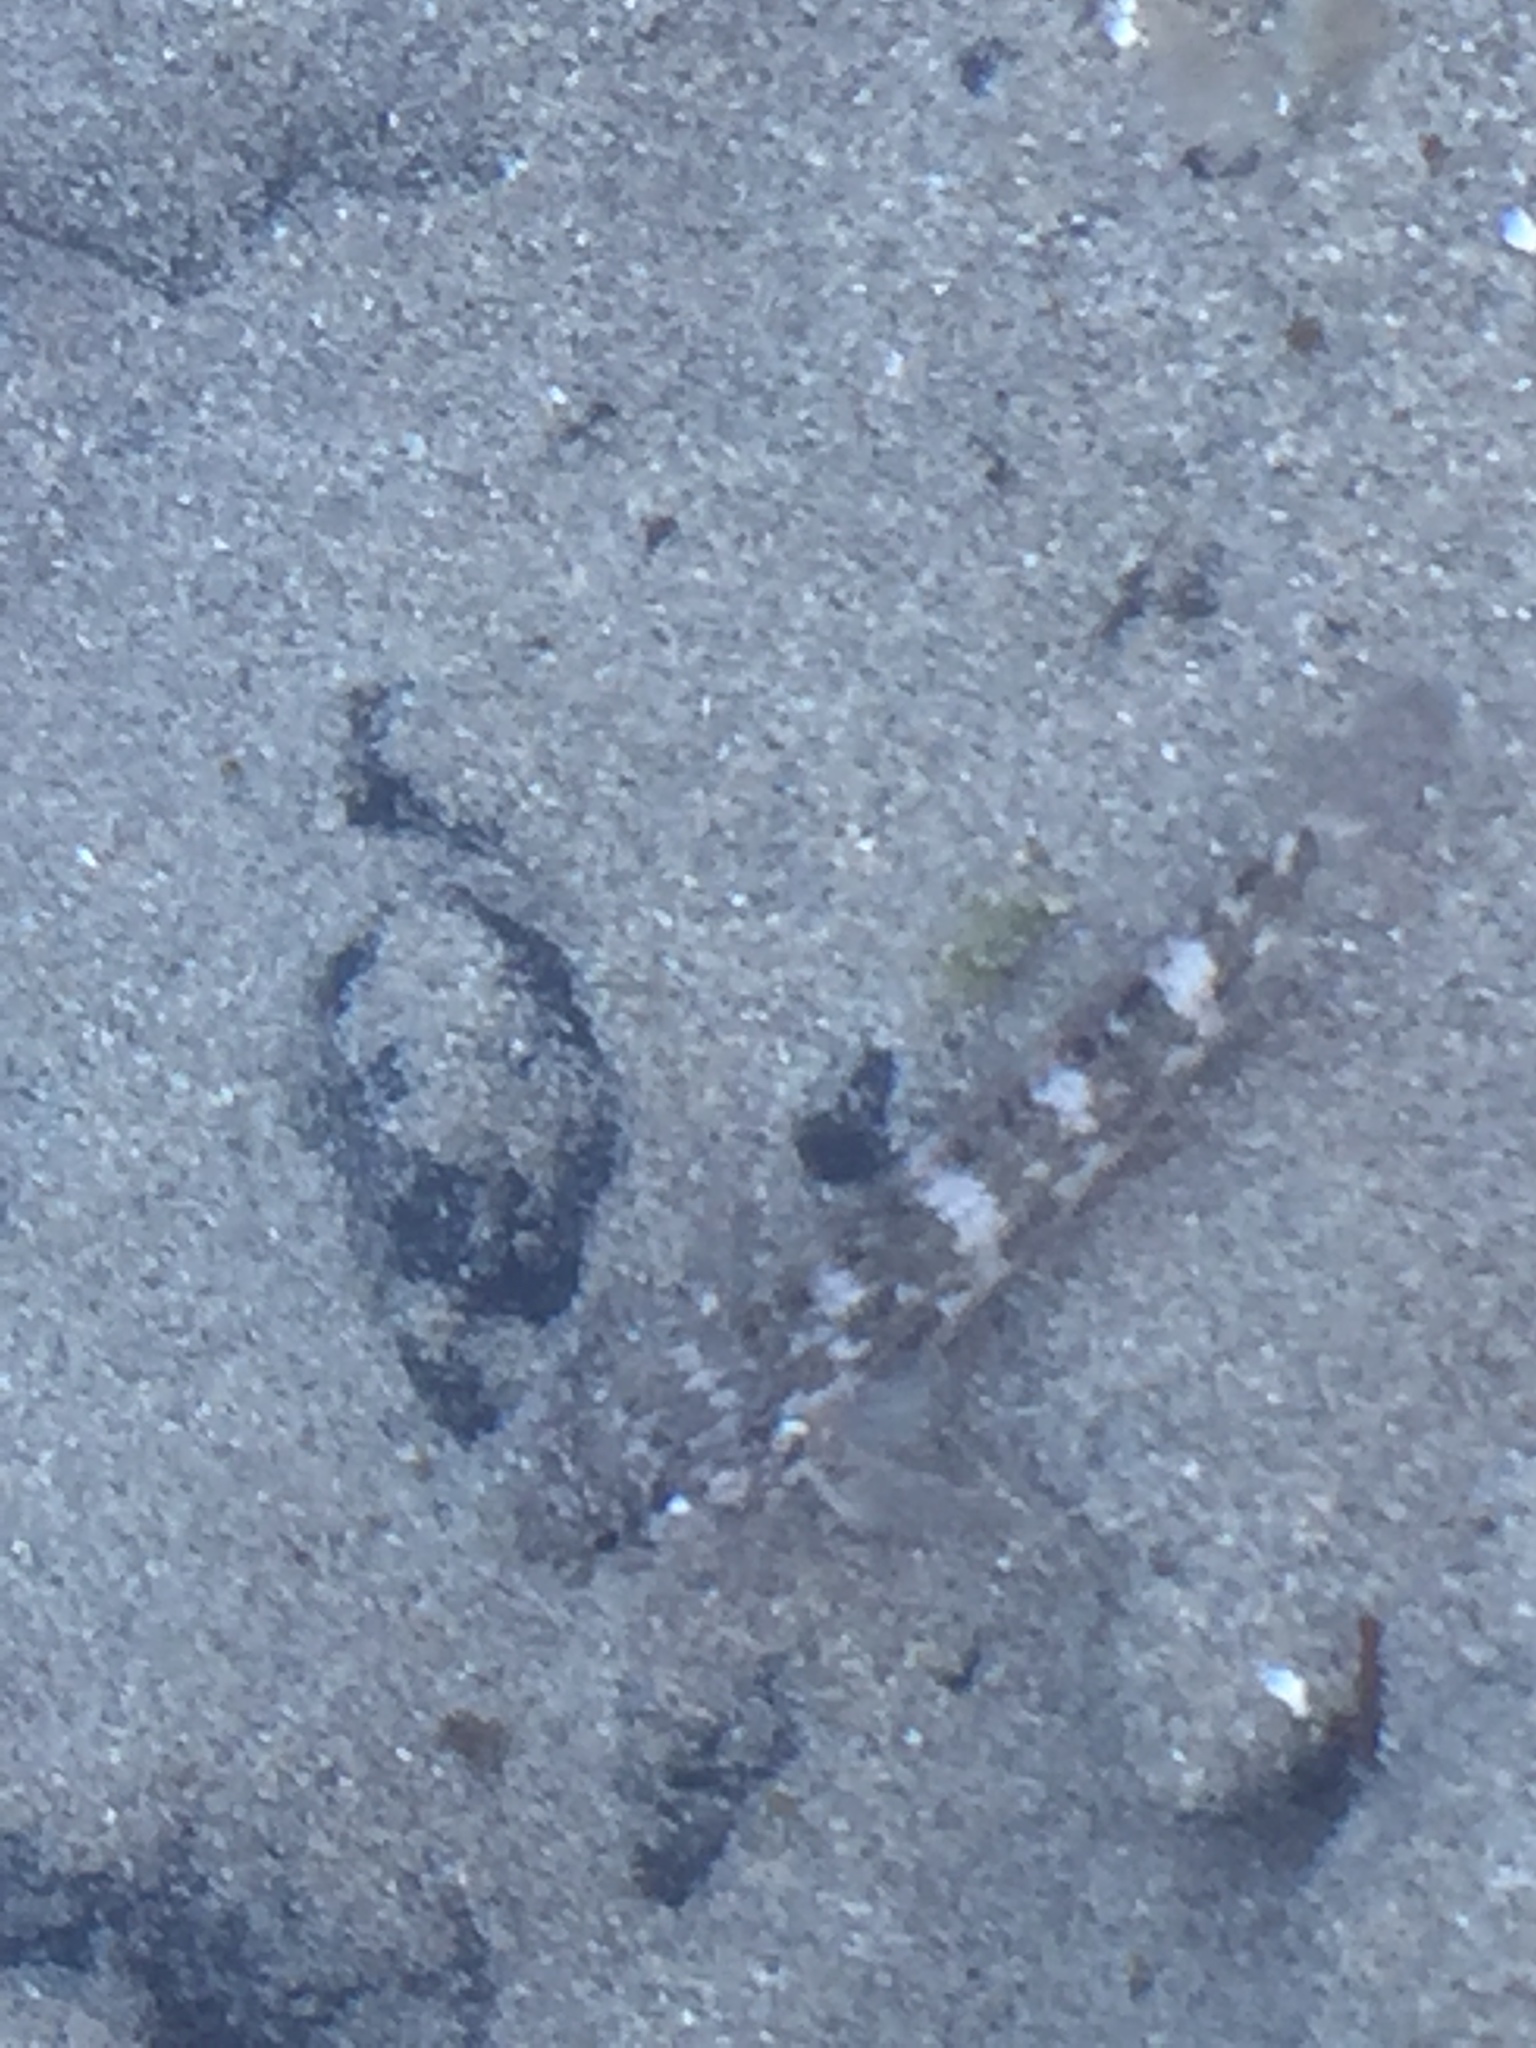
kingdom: Animalia
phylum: Chordata
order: Perciformes
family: Gobiidae
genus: Mauligobius
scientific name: Mauligobius maderensis
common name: Rock goby
